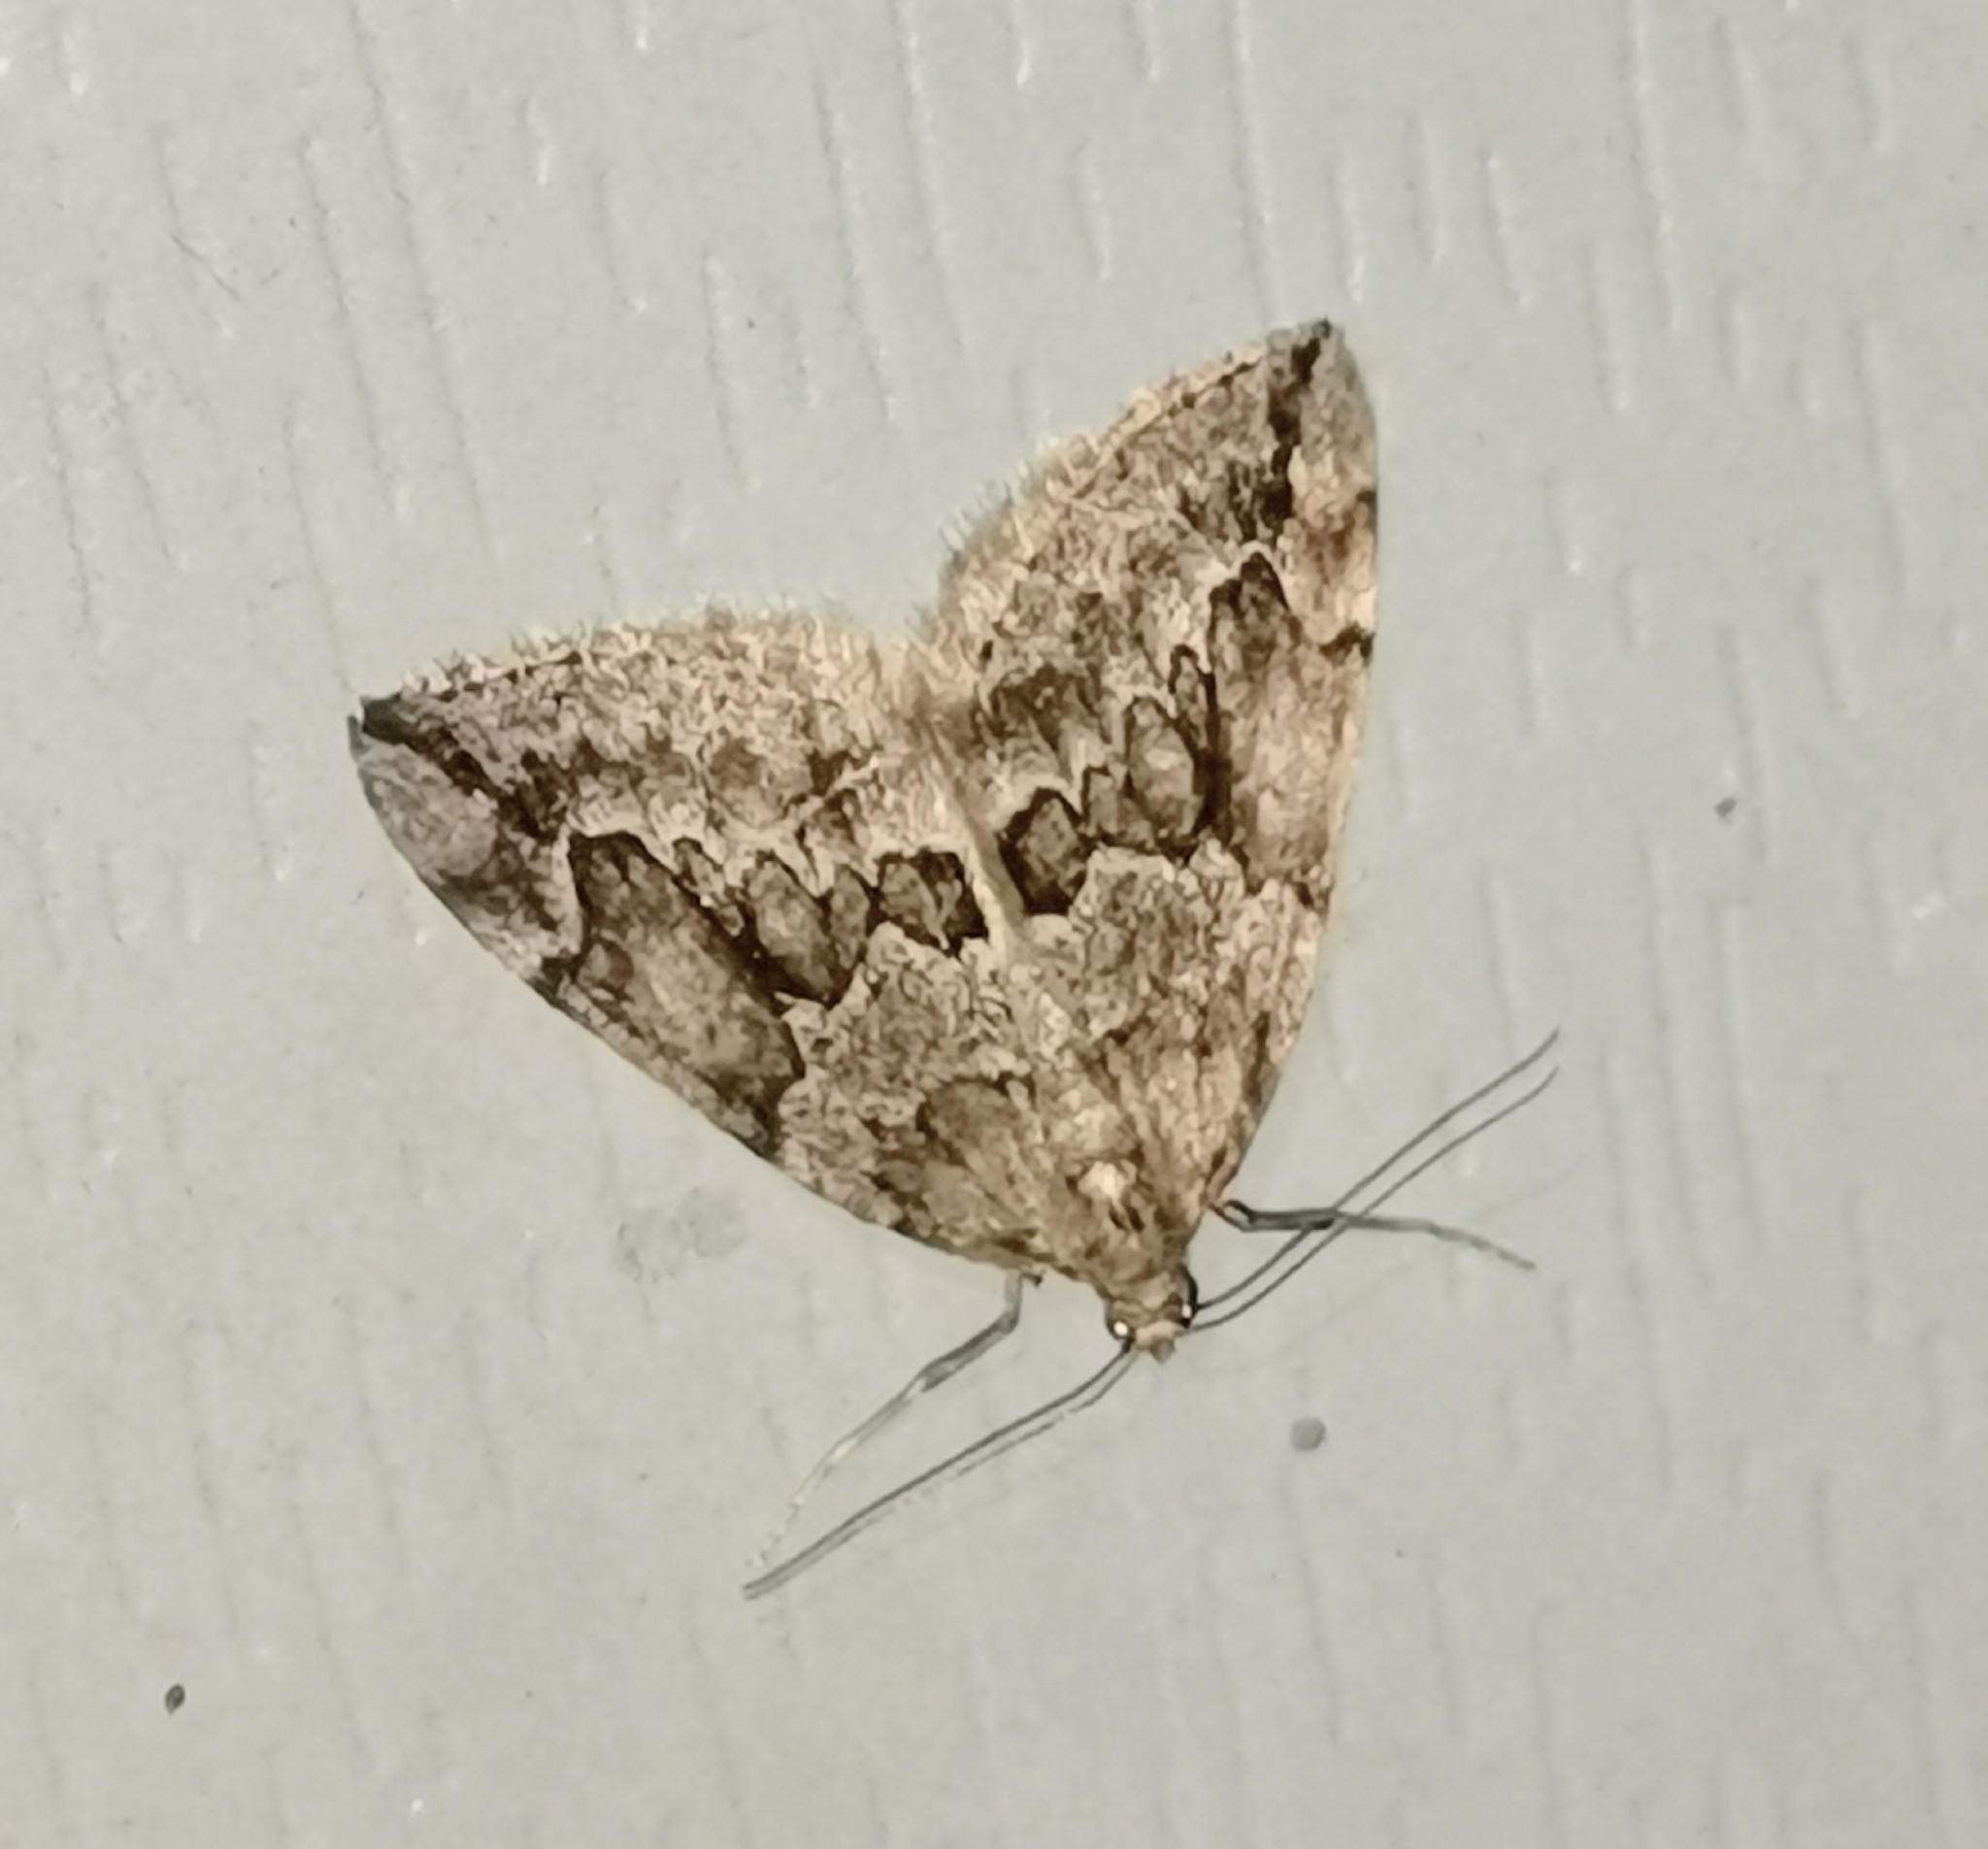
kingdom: Animalia
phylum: Arthropoda
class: Insecta
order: Lepidoptera
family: Geometridae
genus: Thera
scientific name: Thera juniperata
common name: Juniper carpet
